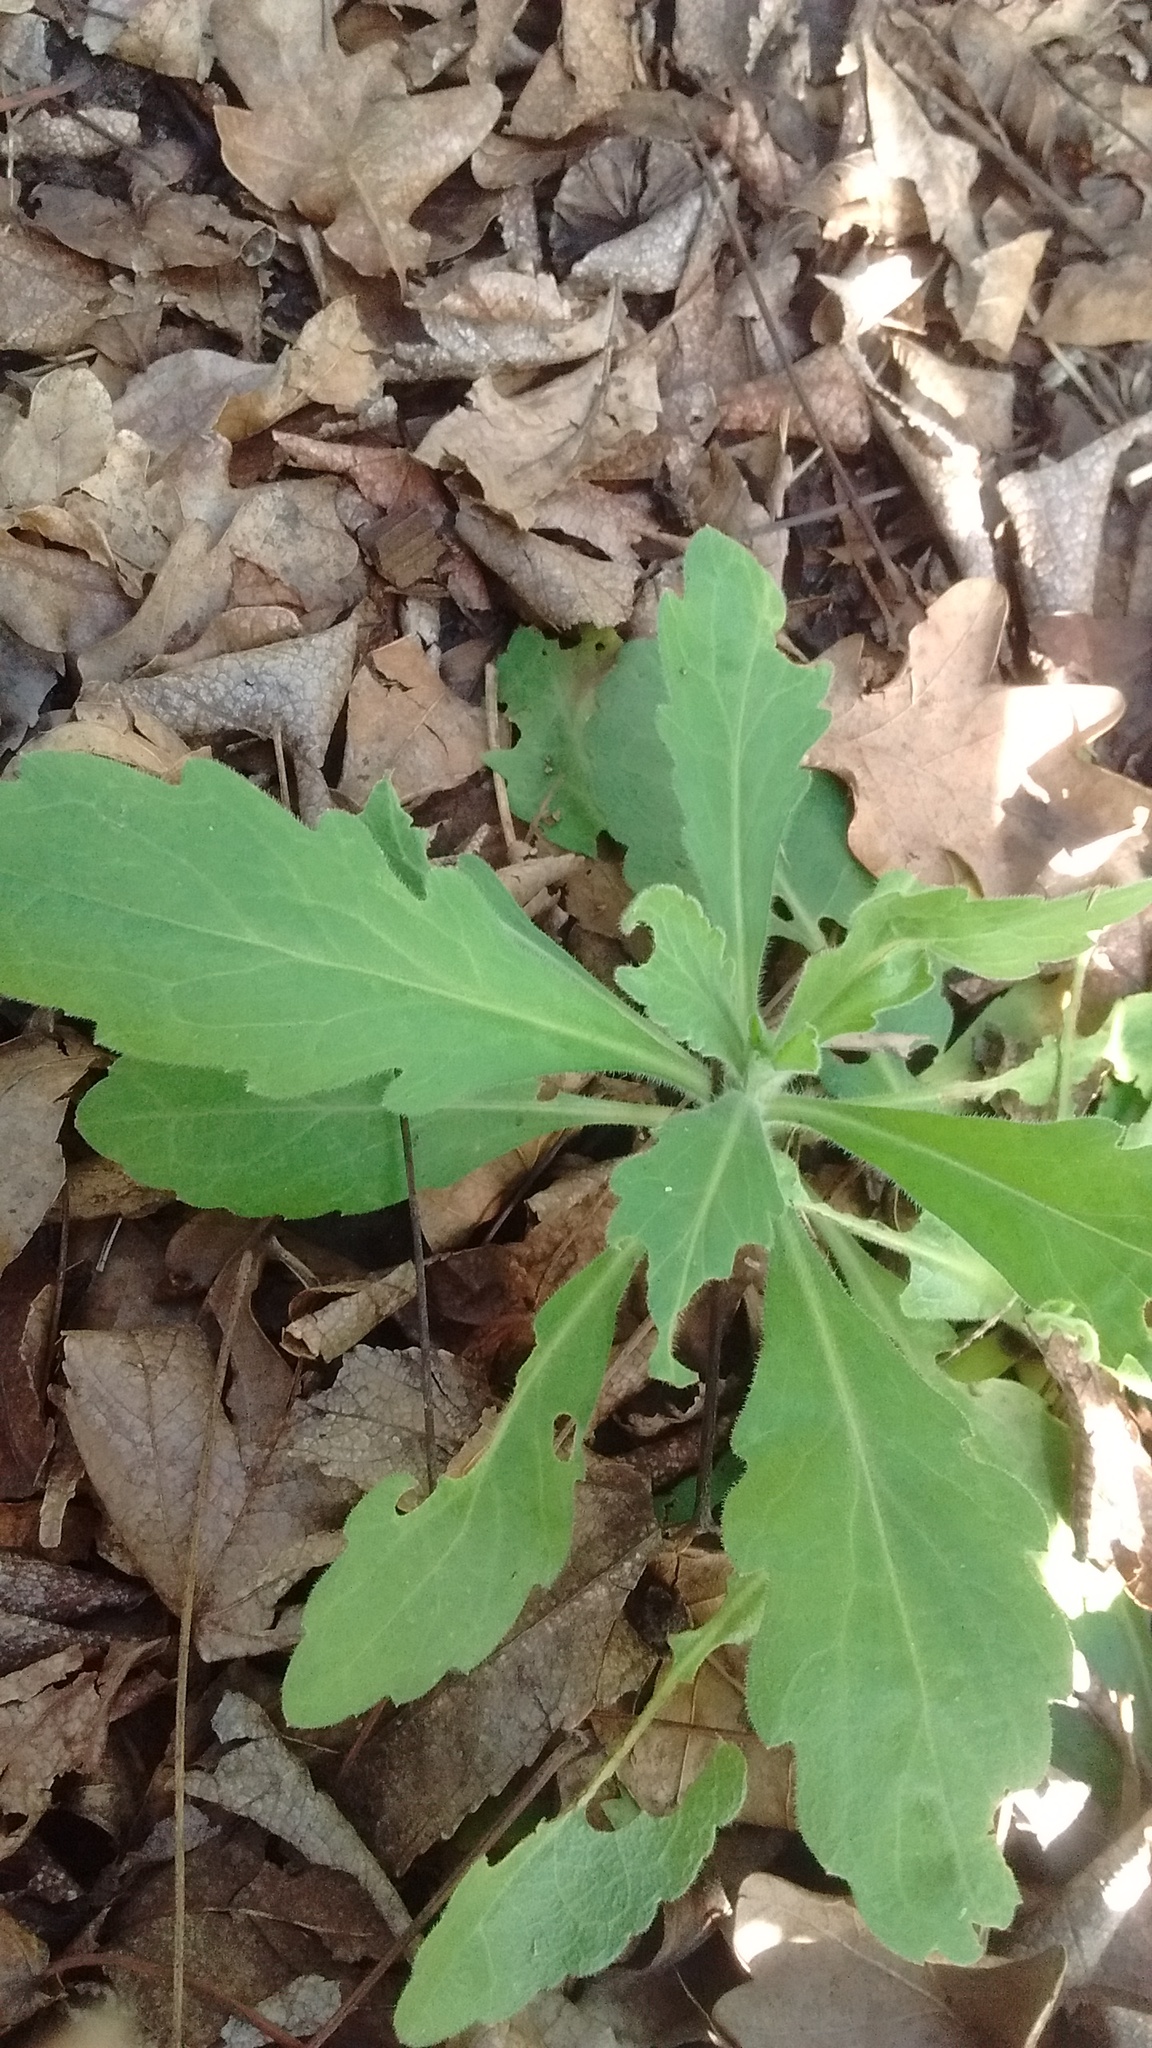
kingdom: Plantae
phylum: Tracheophyta
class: Magnoliopsida
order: Asterales
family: Asteraceae
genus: Erigeron
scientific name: Erigeron bonariensis
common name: Argentine fleabane
